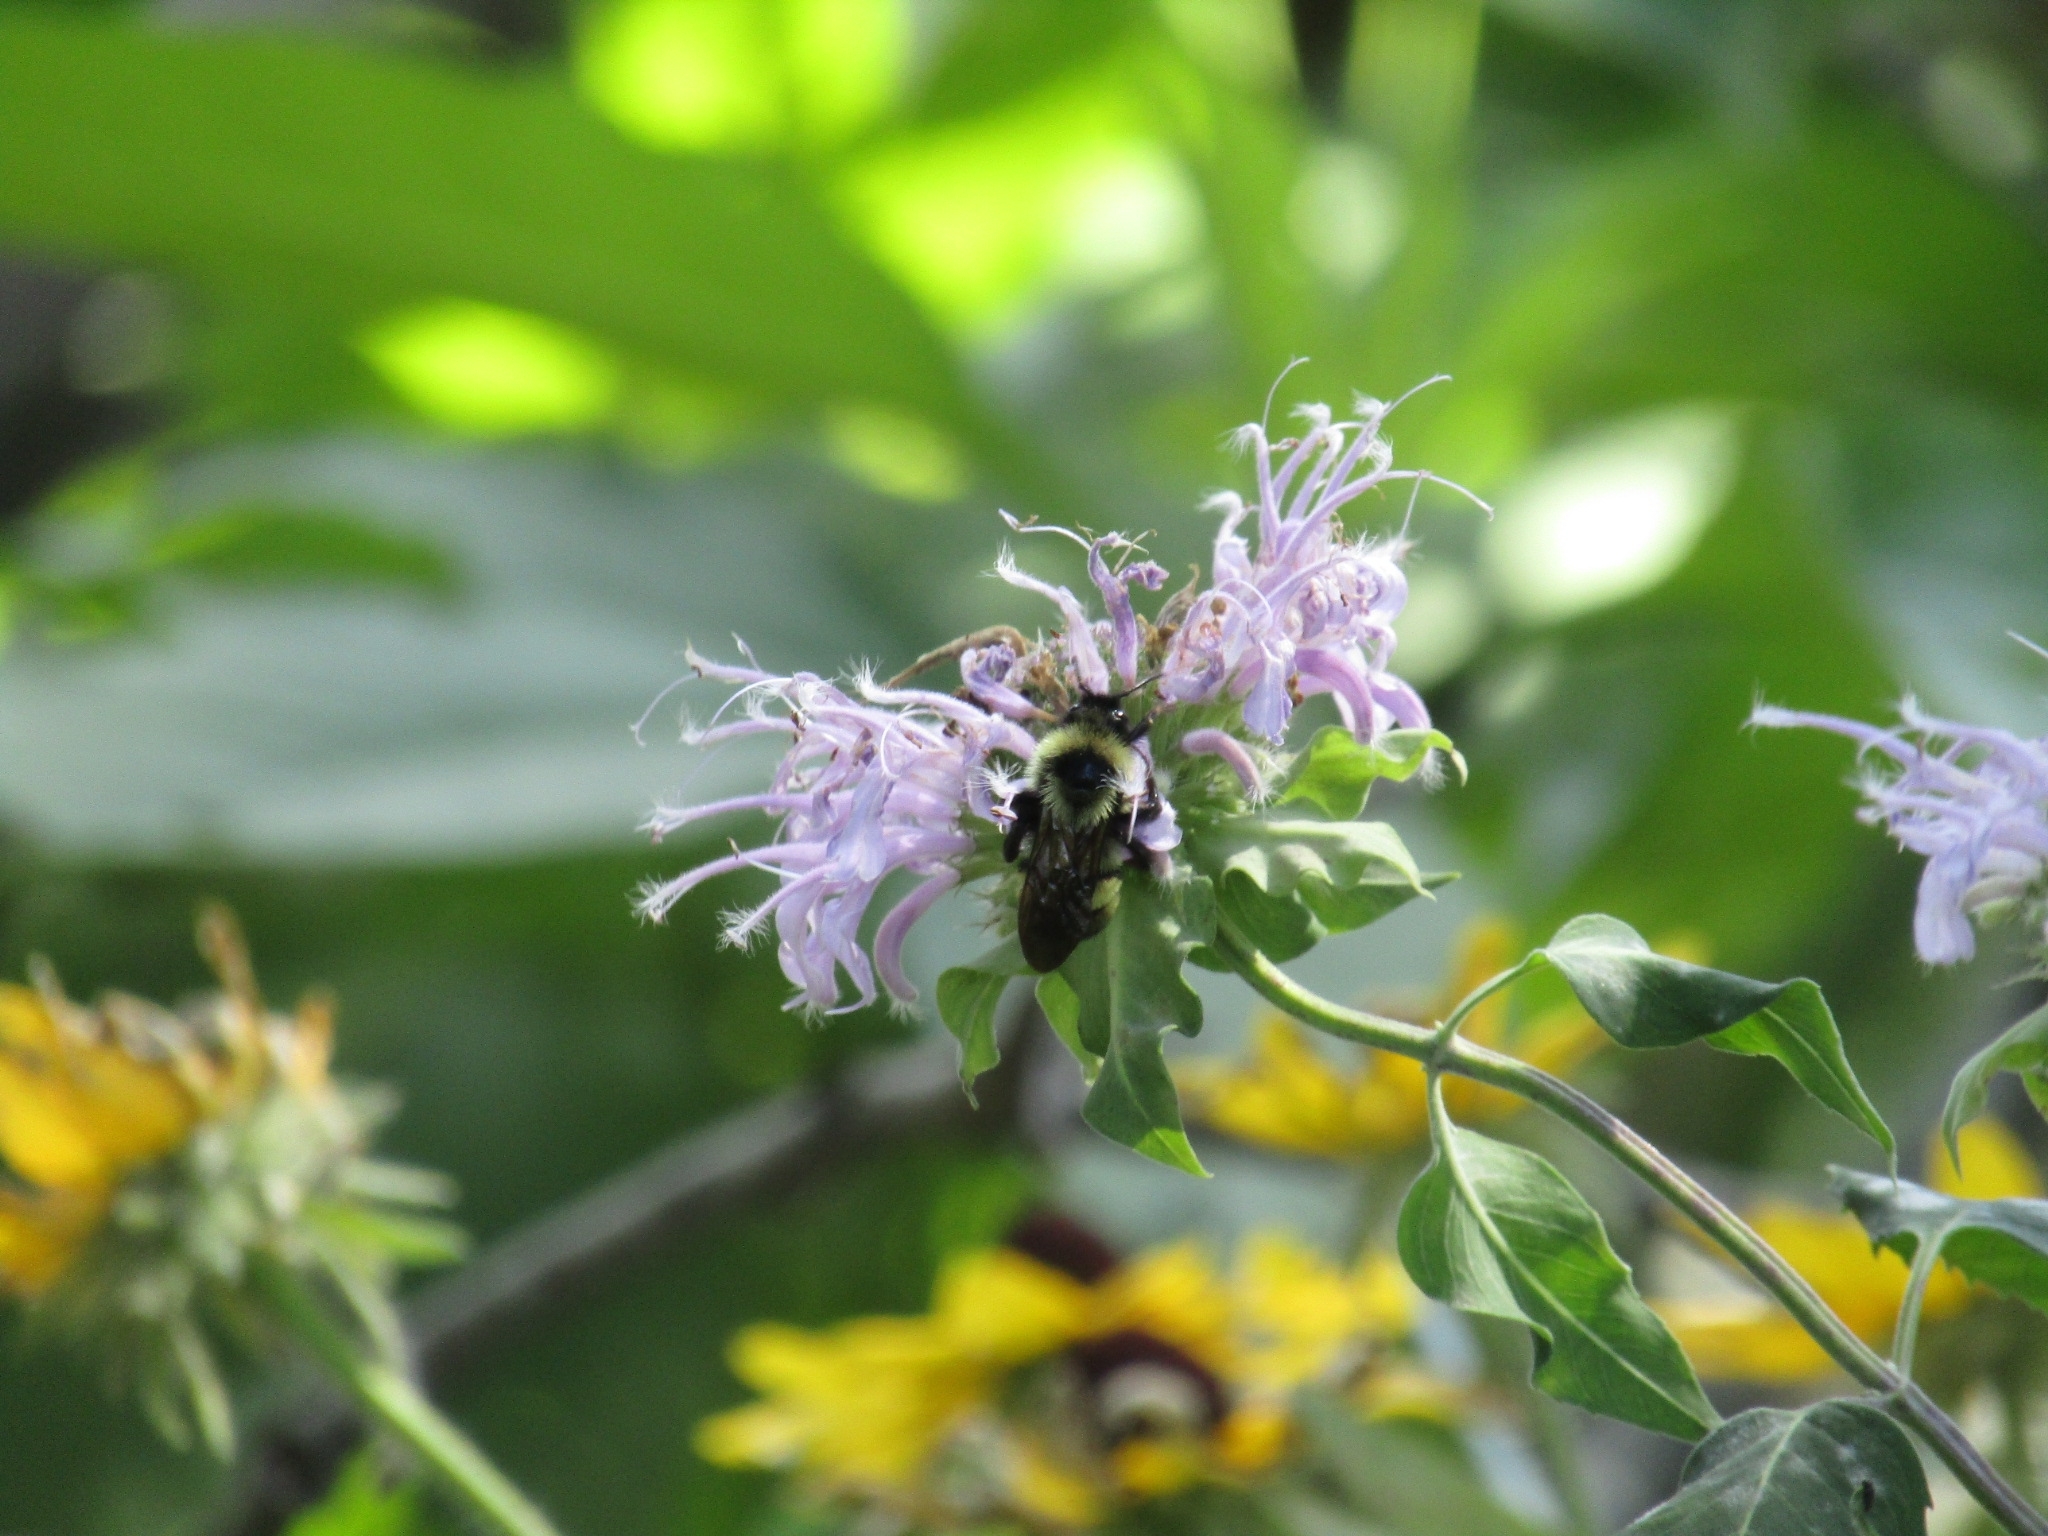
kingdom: Animalia
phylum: Arthropoda
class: Insecta
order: Hymenoptera
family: Apidae
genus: Bombus
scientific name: Bombus citrinus
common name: Lemon cuckoo bumble bee
